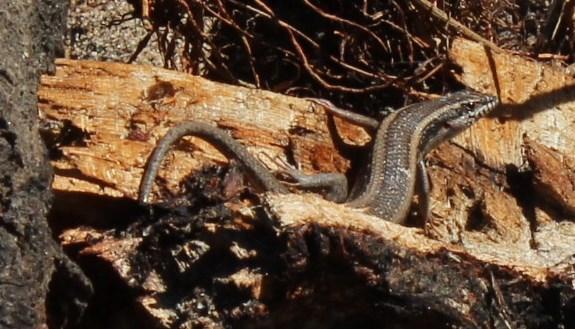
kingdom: Animalia
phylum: Chordata
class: Squamata
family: Scincidae
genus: Trachylepis
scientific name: Trachylepis spilogaster
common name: Kalahari tree skink
